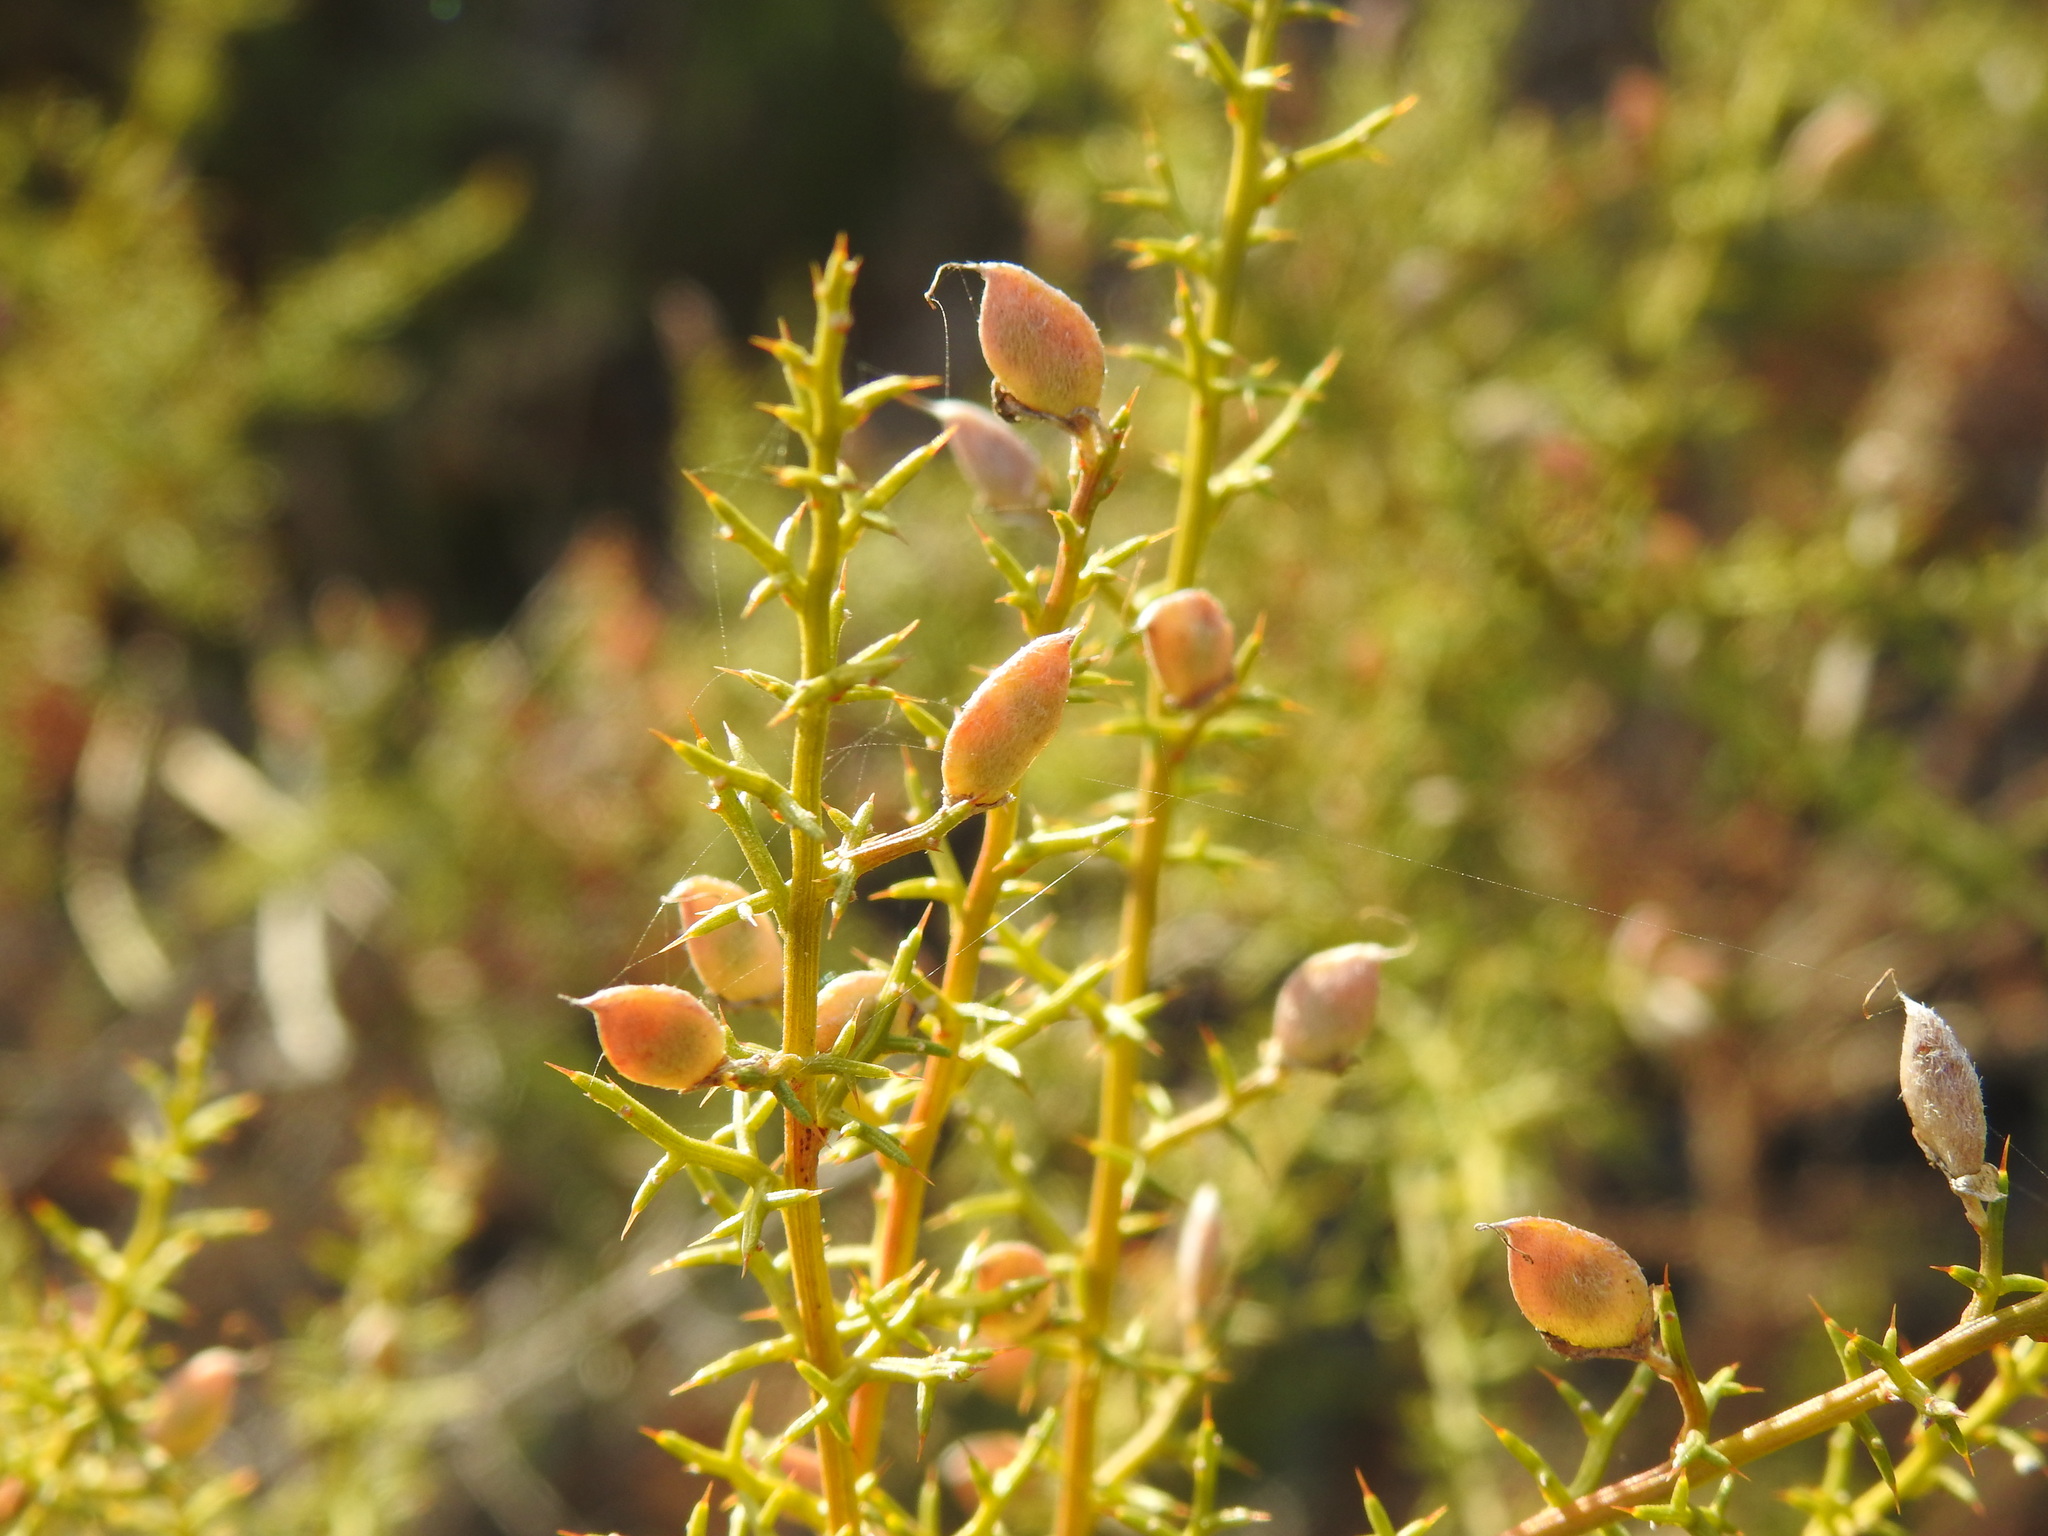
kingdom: Plantae
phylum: Tracheophyta
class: Magnoliopsida
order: Fabales
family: Fabaceae
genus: Stauracanthus
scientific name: Stauracanthus boivinii
